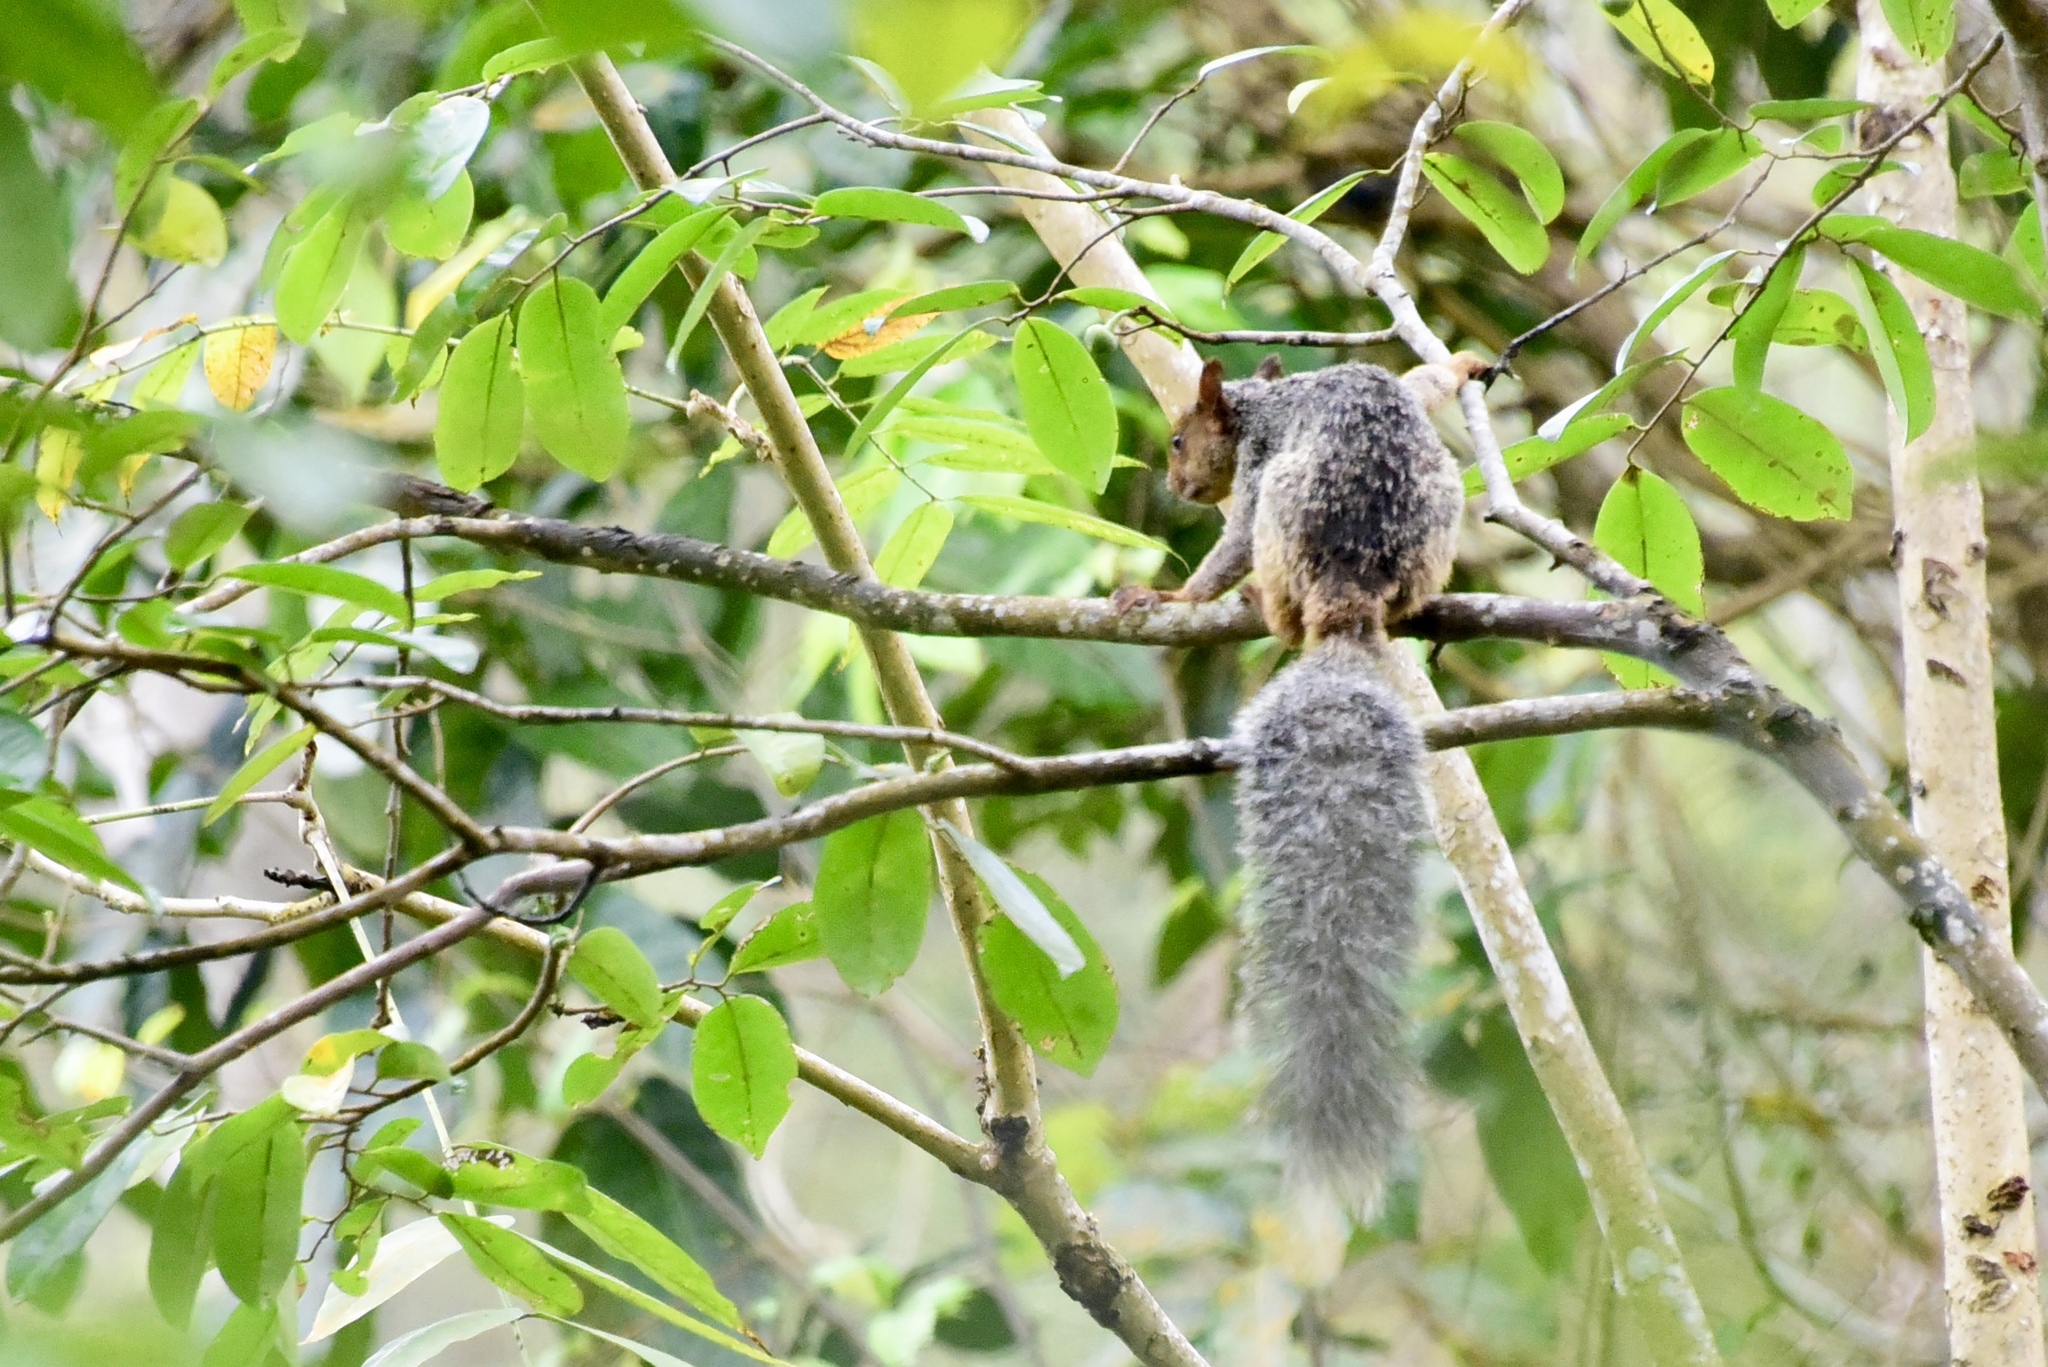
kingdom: Animalia
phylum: Chordata
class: Mammalia
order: Rodentia
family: Sciuridae
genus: Sciurus
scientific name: Sciurus stramineus
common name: Guayaquil squirrel
